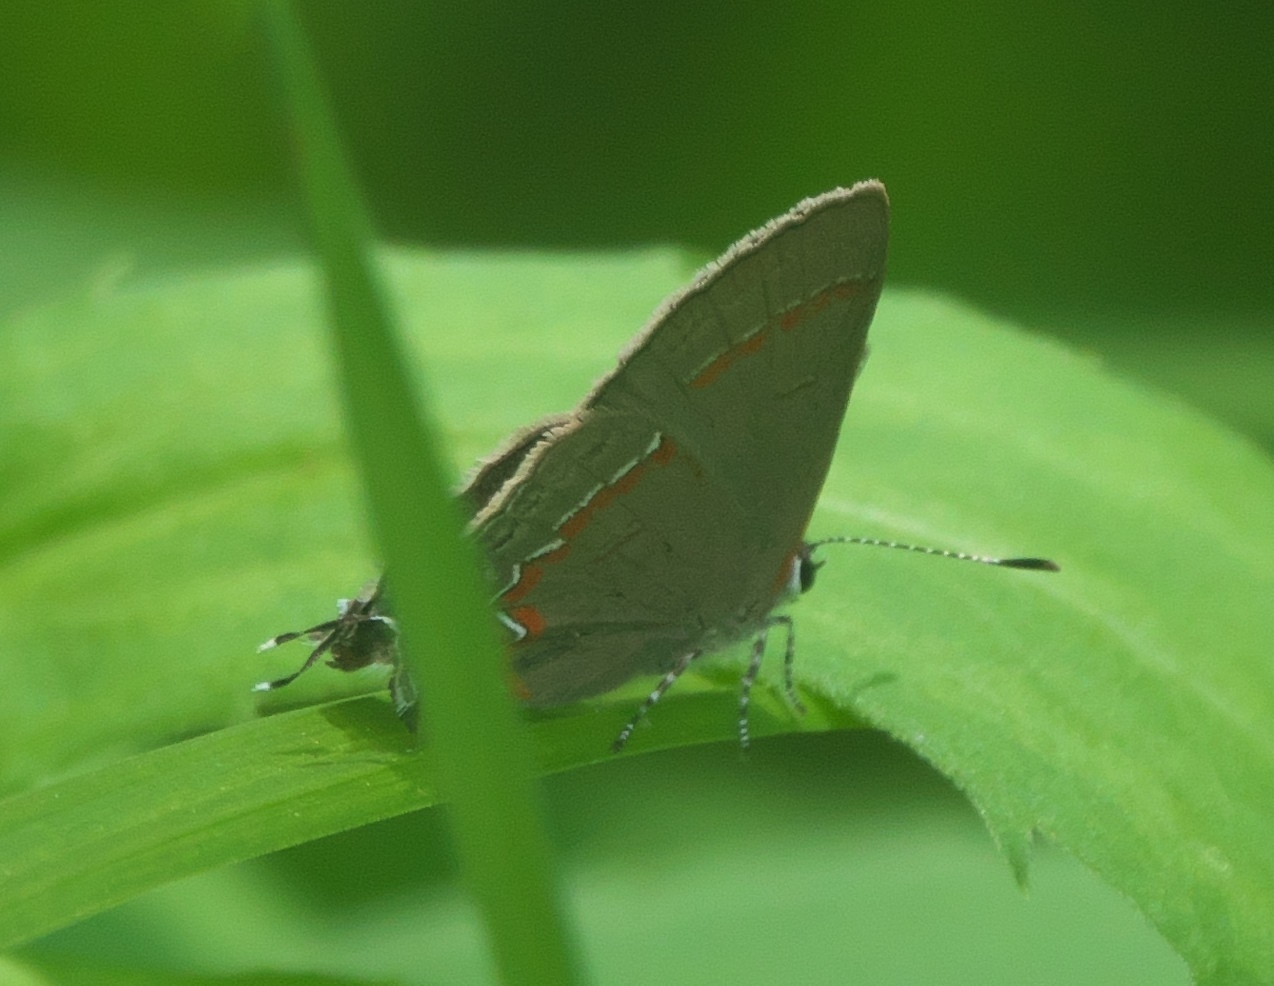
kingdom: Animalia
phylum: Arthropoda
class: Insecta
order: Lepidoptera
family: Lycaenidae
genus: Calycopis
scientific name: Calycopis cecrops
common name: Red-banded hairstreak
